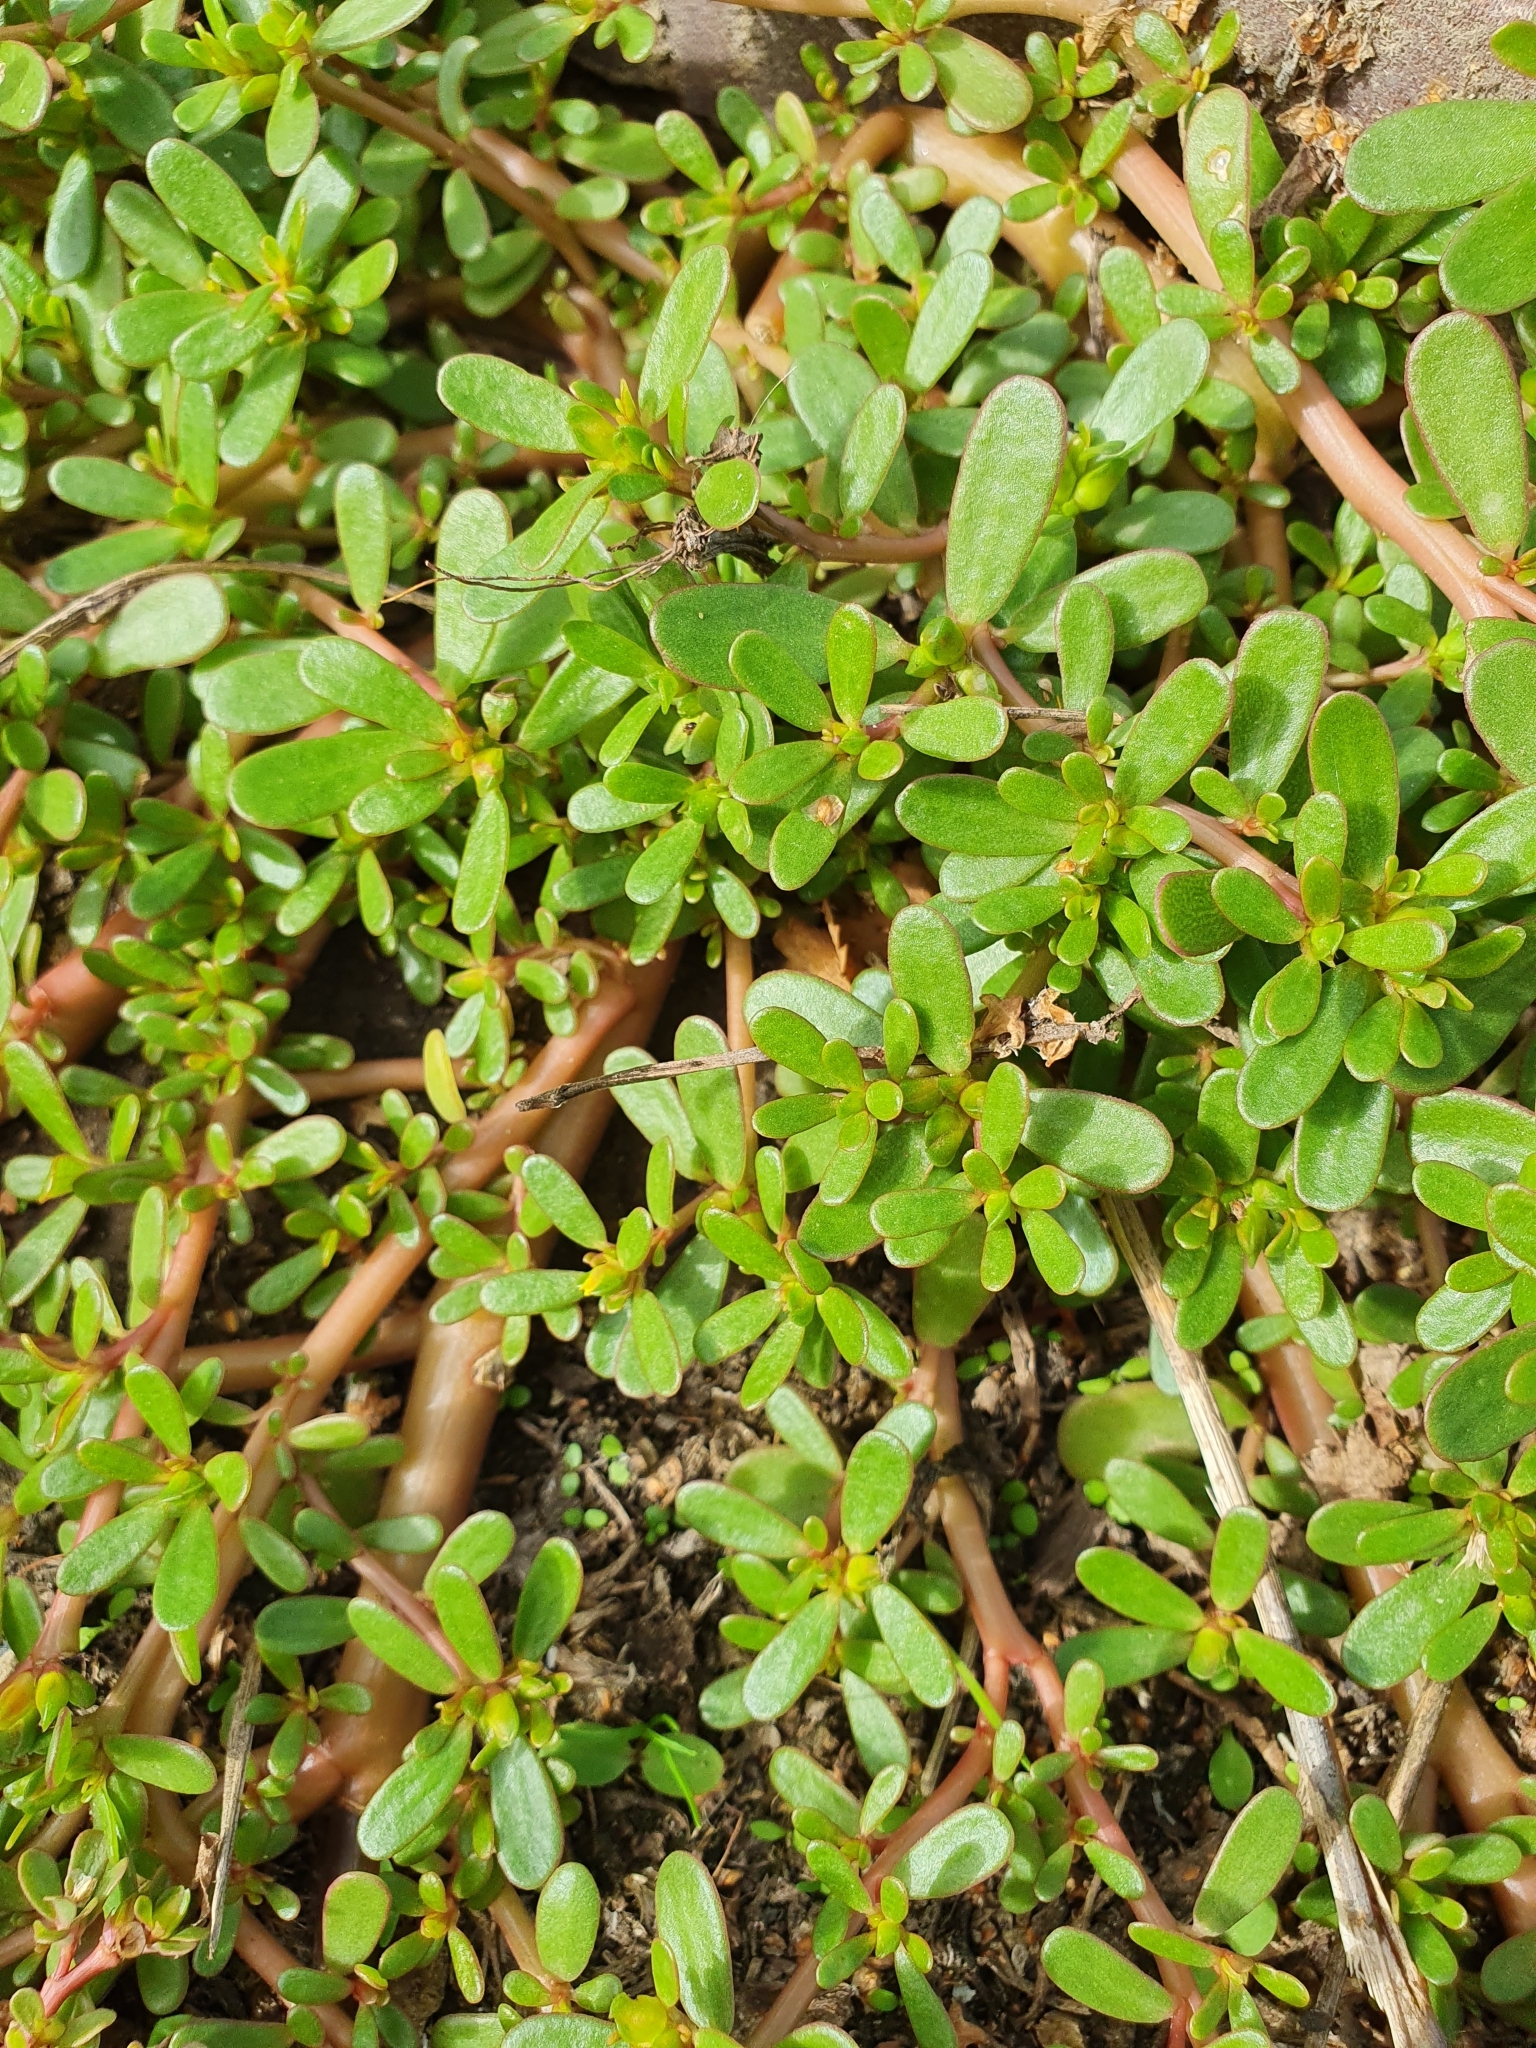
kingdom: Plantae
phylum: Tracheophyta
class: Magnoliopsida
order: Caryophyllales
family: Portulacaceae
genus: Portulaca
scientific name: Portulaca oleracea
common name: Common purslane
